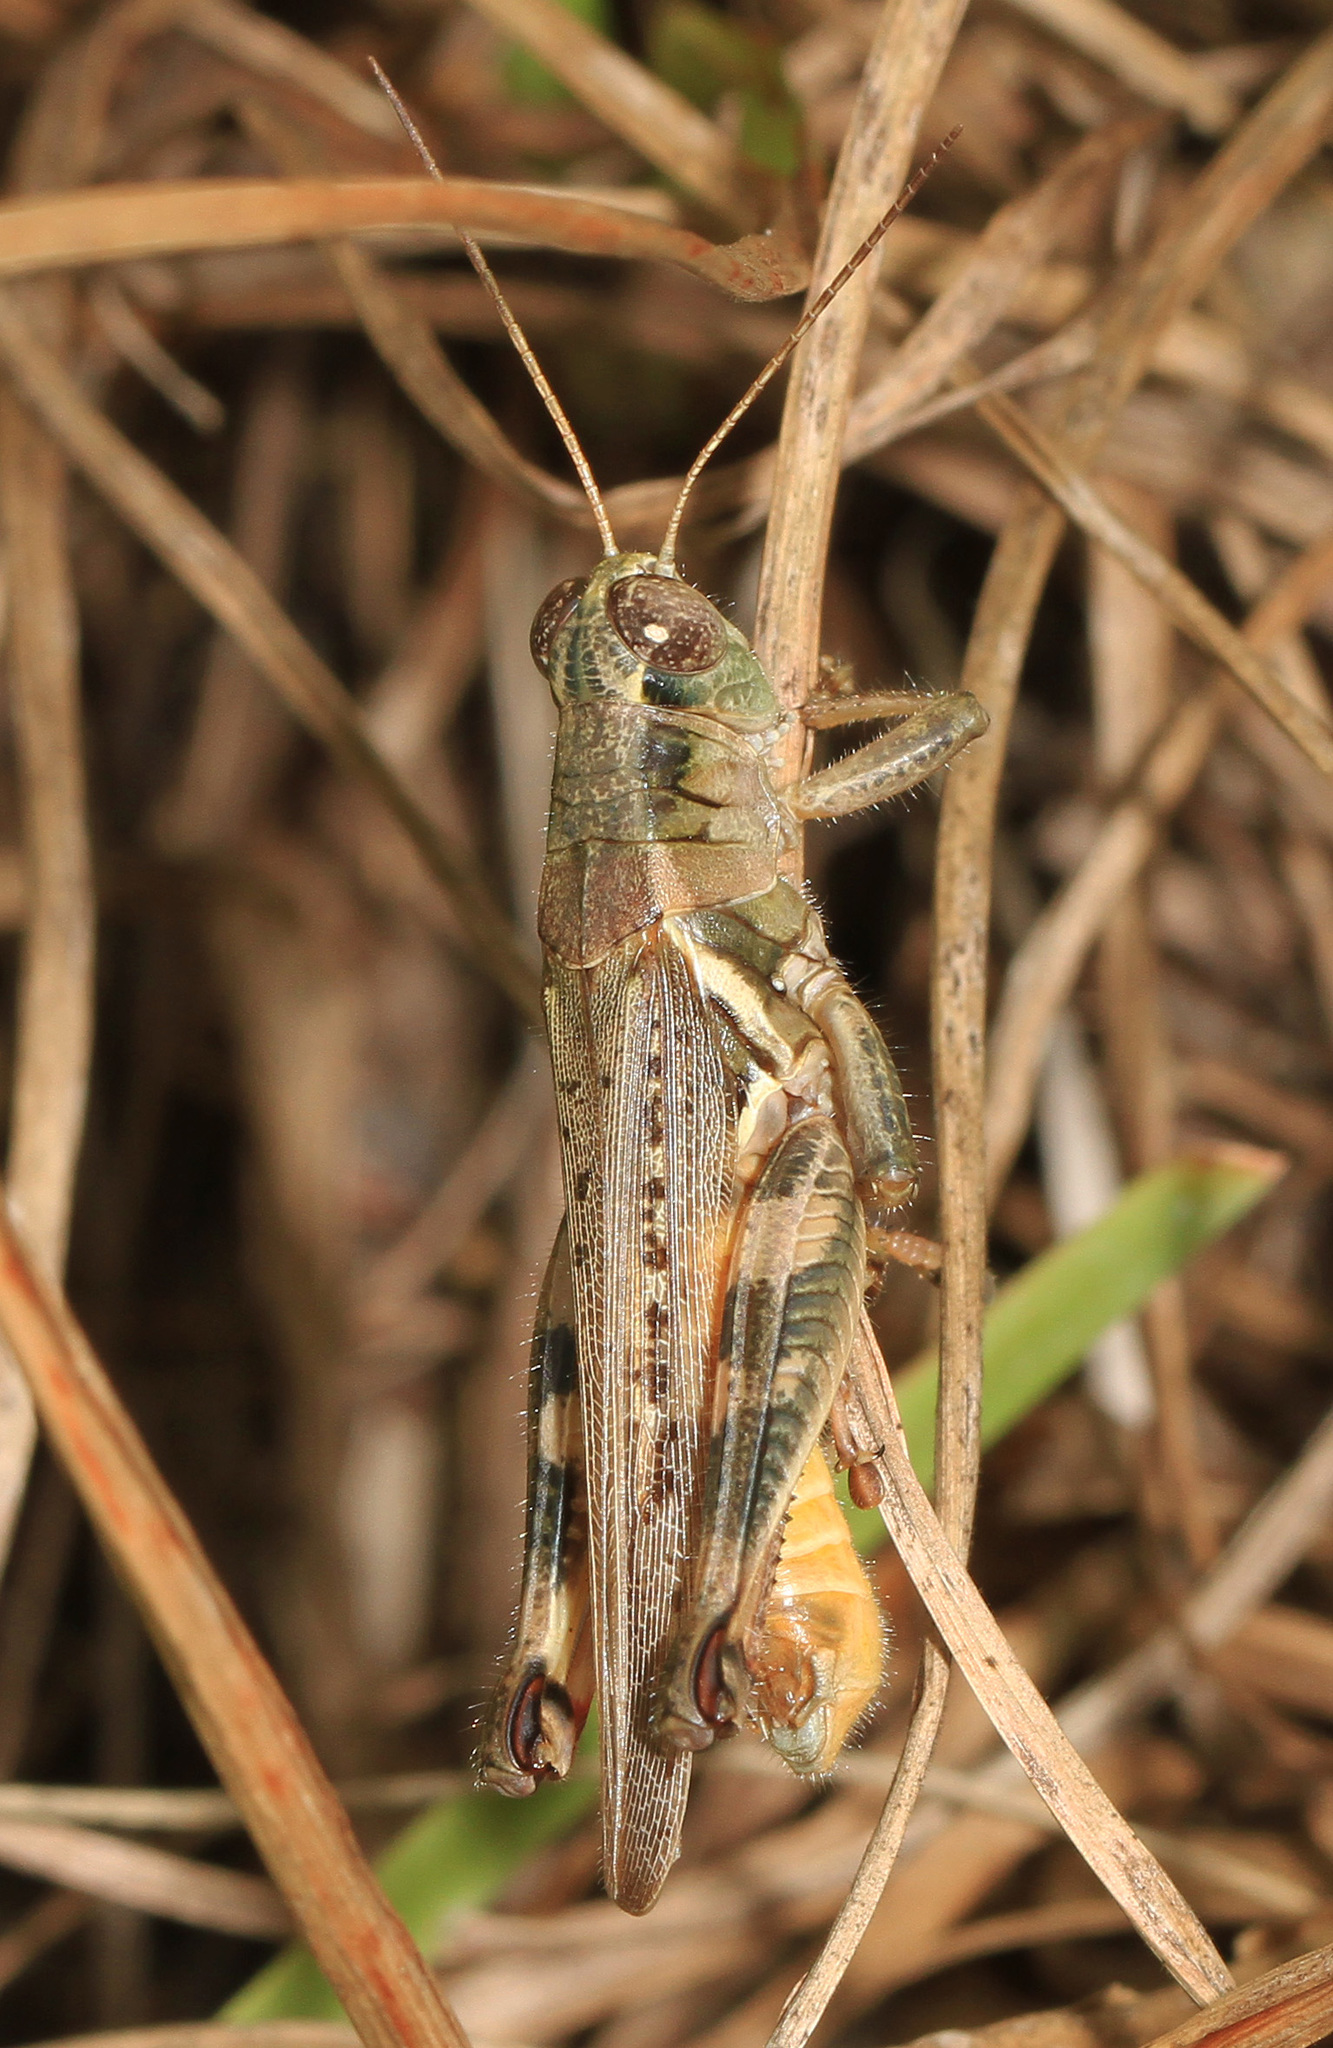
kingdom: Animalia
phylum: Arthropoda
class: Insecta
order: Orthoptera
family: Acrididae
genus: Melanoplus
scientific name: Melanoplus keeleri
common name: Keeler grasshopper
